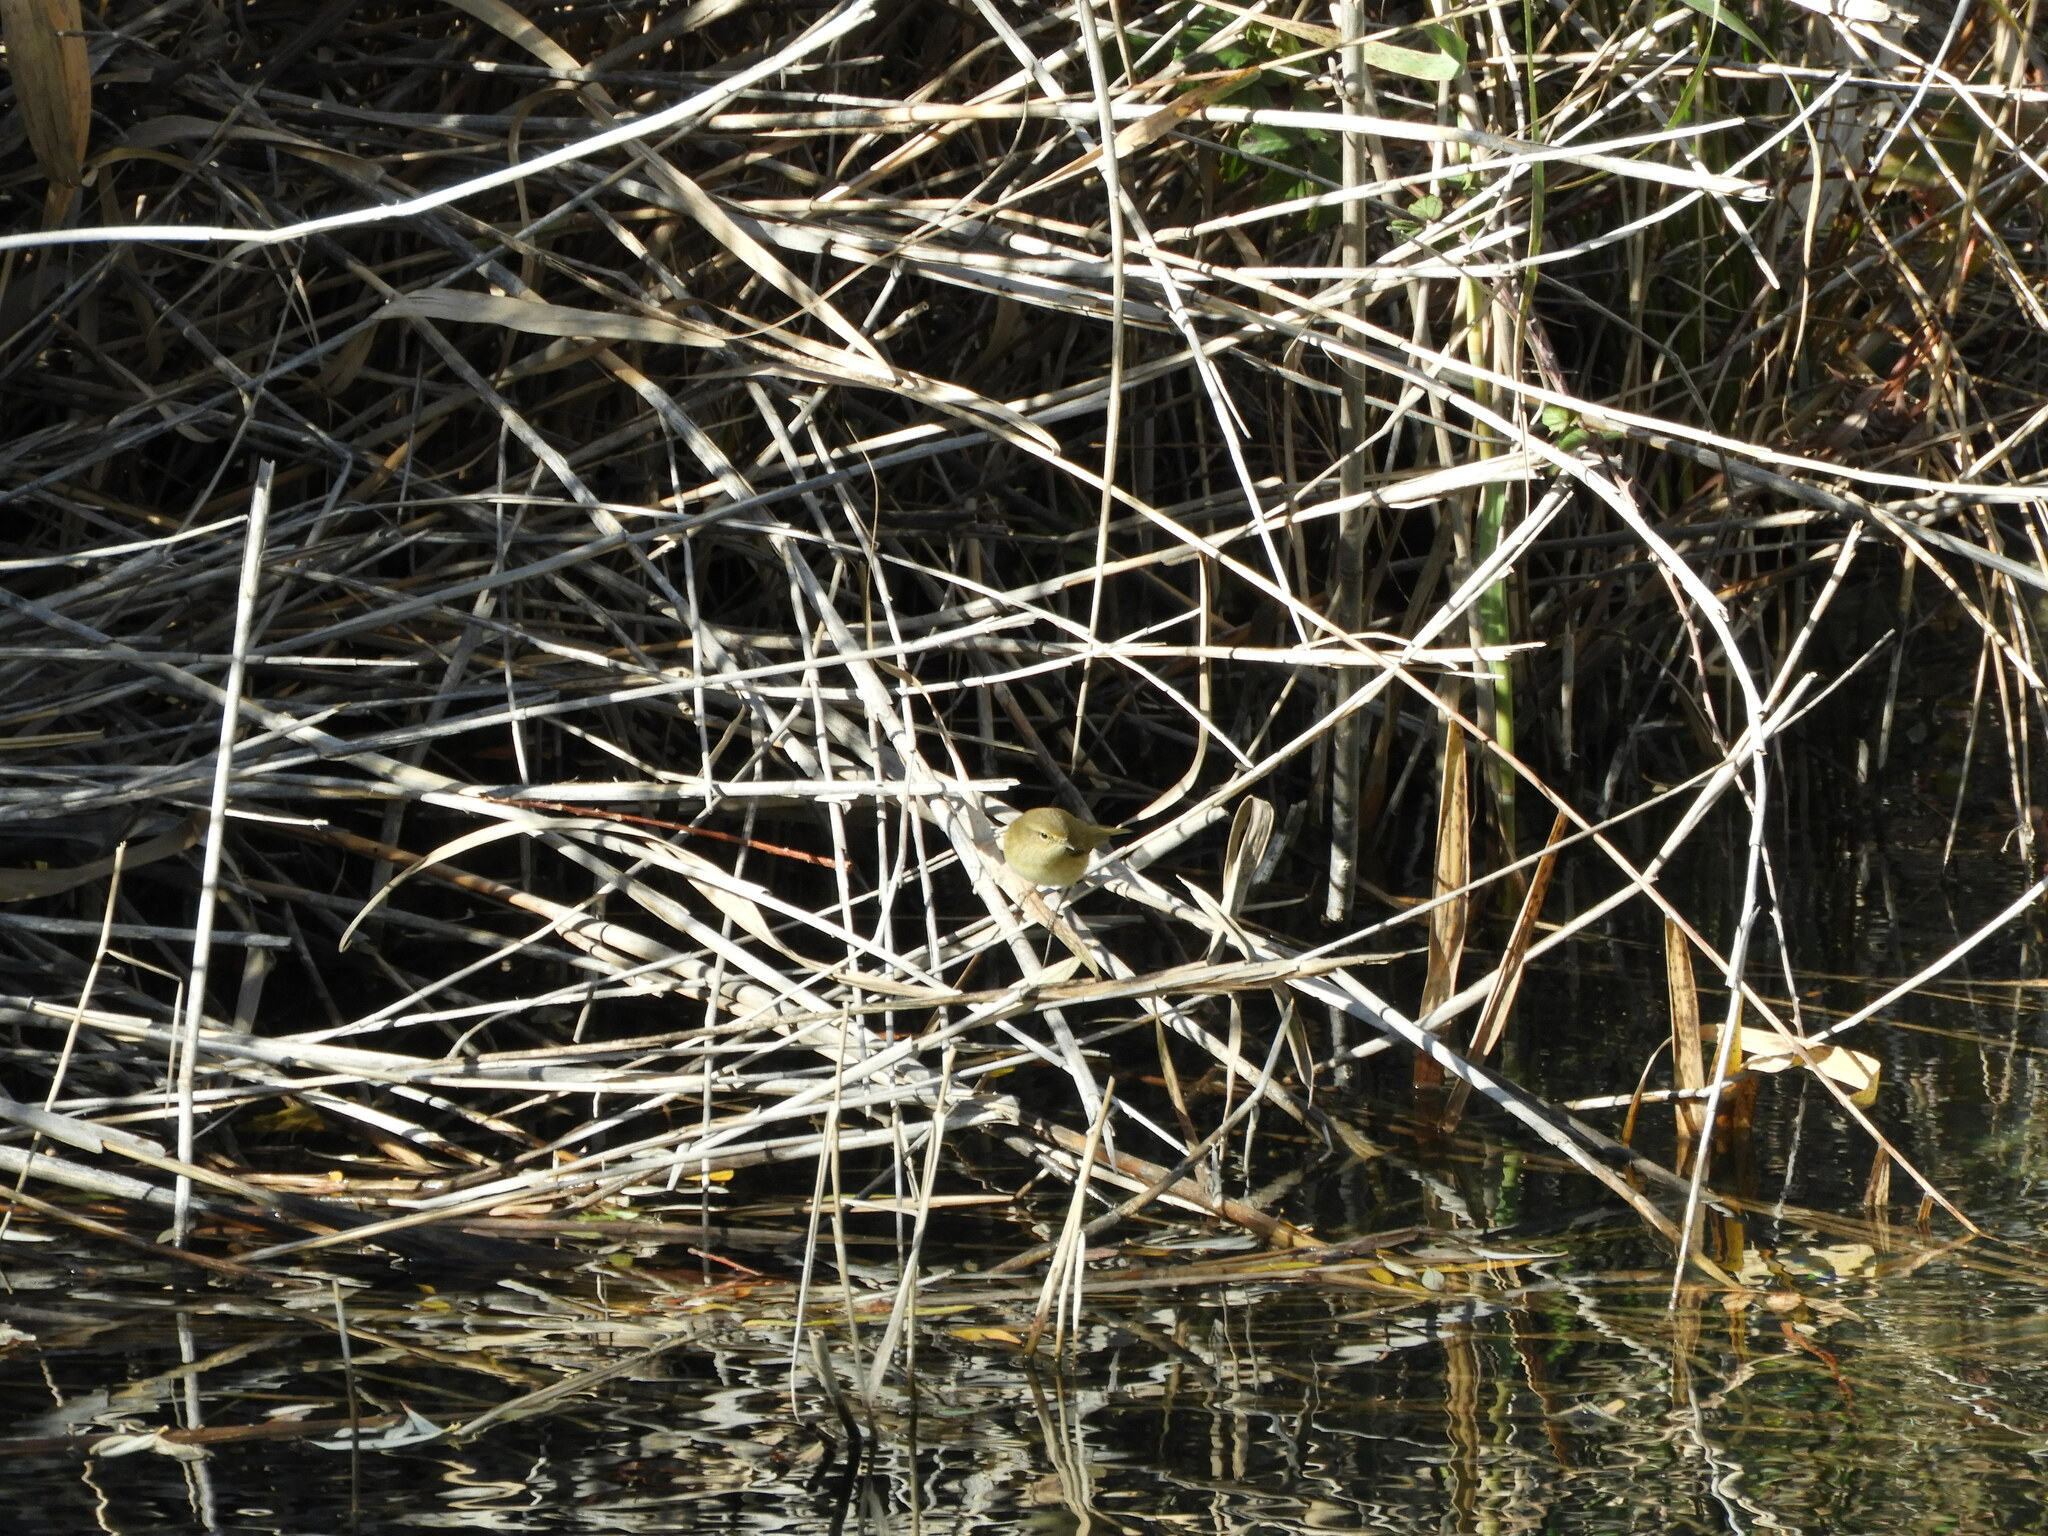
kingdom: Animalia
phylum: Chordata
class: Aves
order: Passeriformes
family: Phylloscopidae
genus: Phylloscopus
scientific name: Phylloscopus collybita
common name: Common chiffchaff
